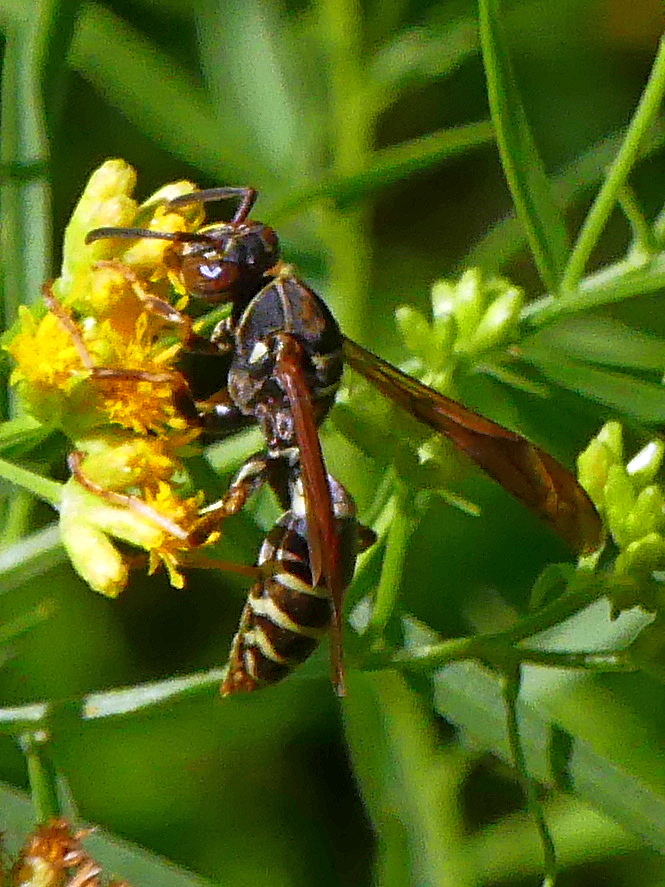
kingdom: Animalia
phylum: Arthropoda
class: Insecta
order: Hymenoptera
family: Eumenidae
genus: Polistes
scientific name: Polistes fuscatus
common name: Dark paper wasp
